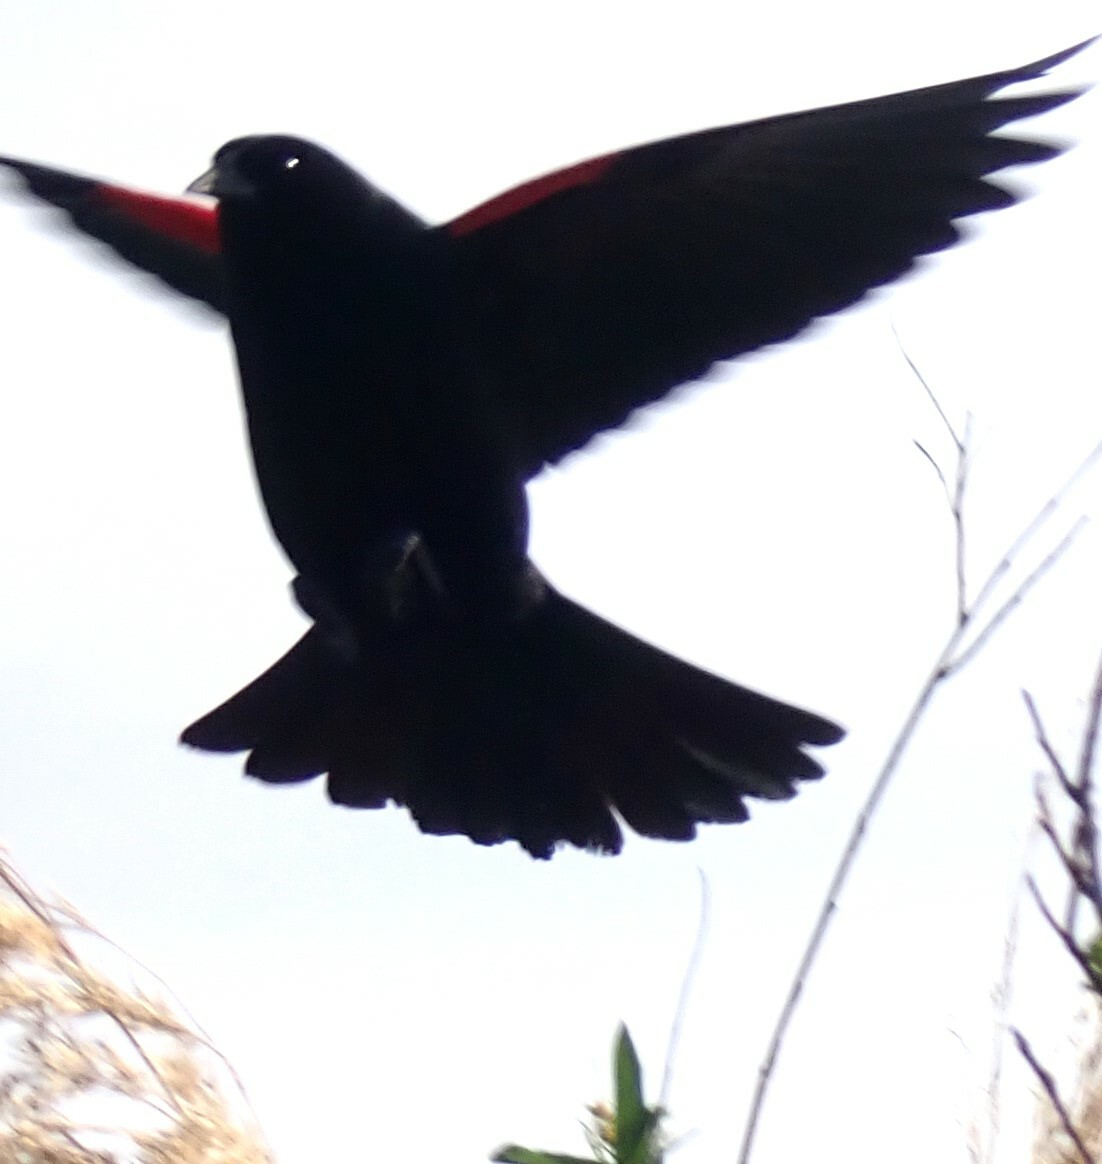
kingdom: Animalia
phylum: Chordata
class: Aves
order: Passeriformes
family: Icteridae
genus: Agelaius
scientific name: Agelaius phoeniceus
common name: Red-winged blackbird
